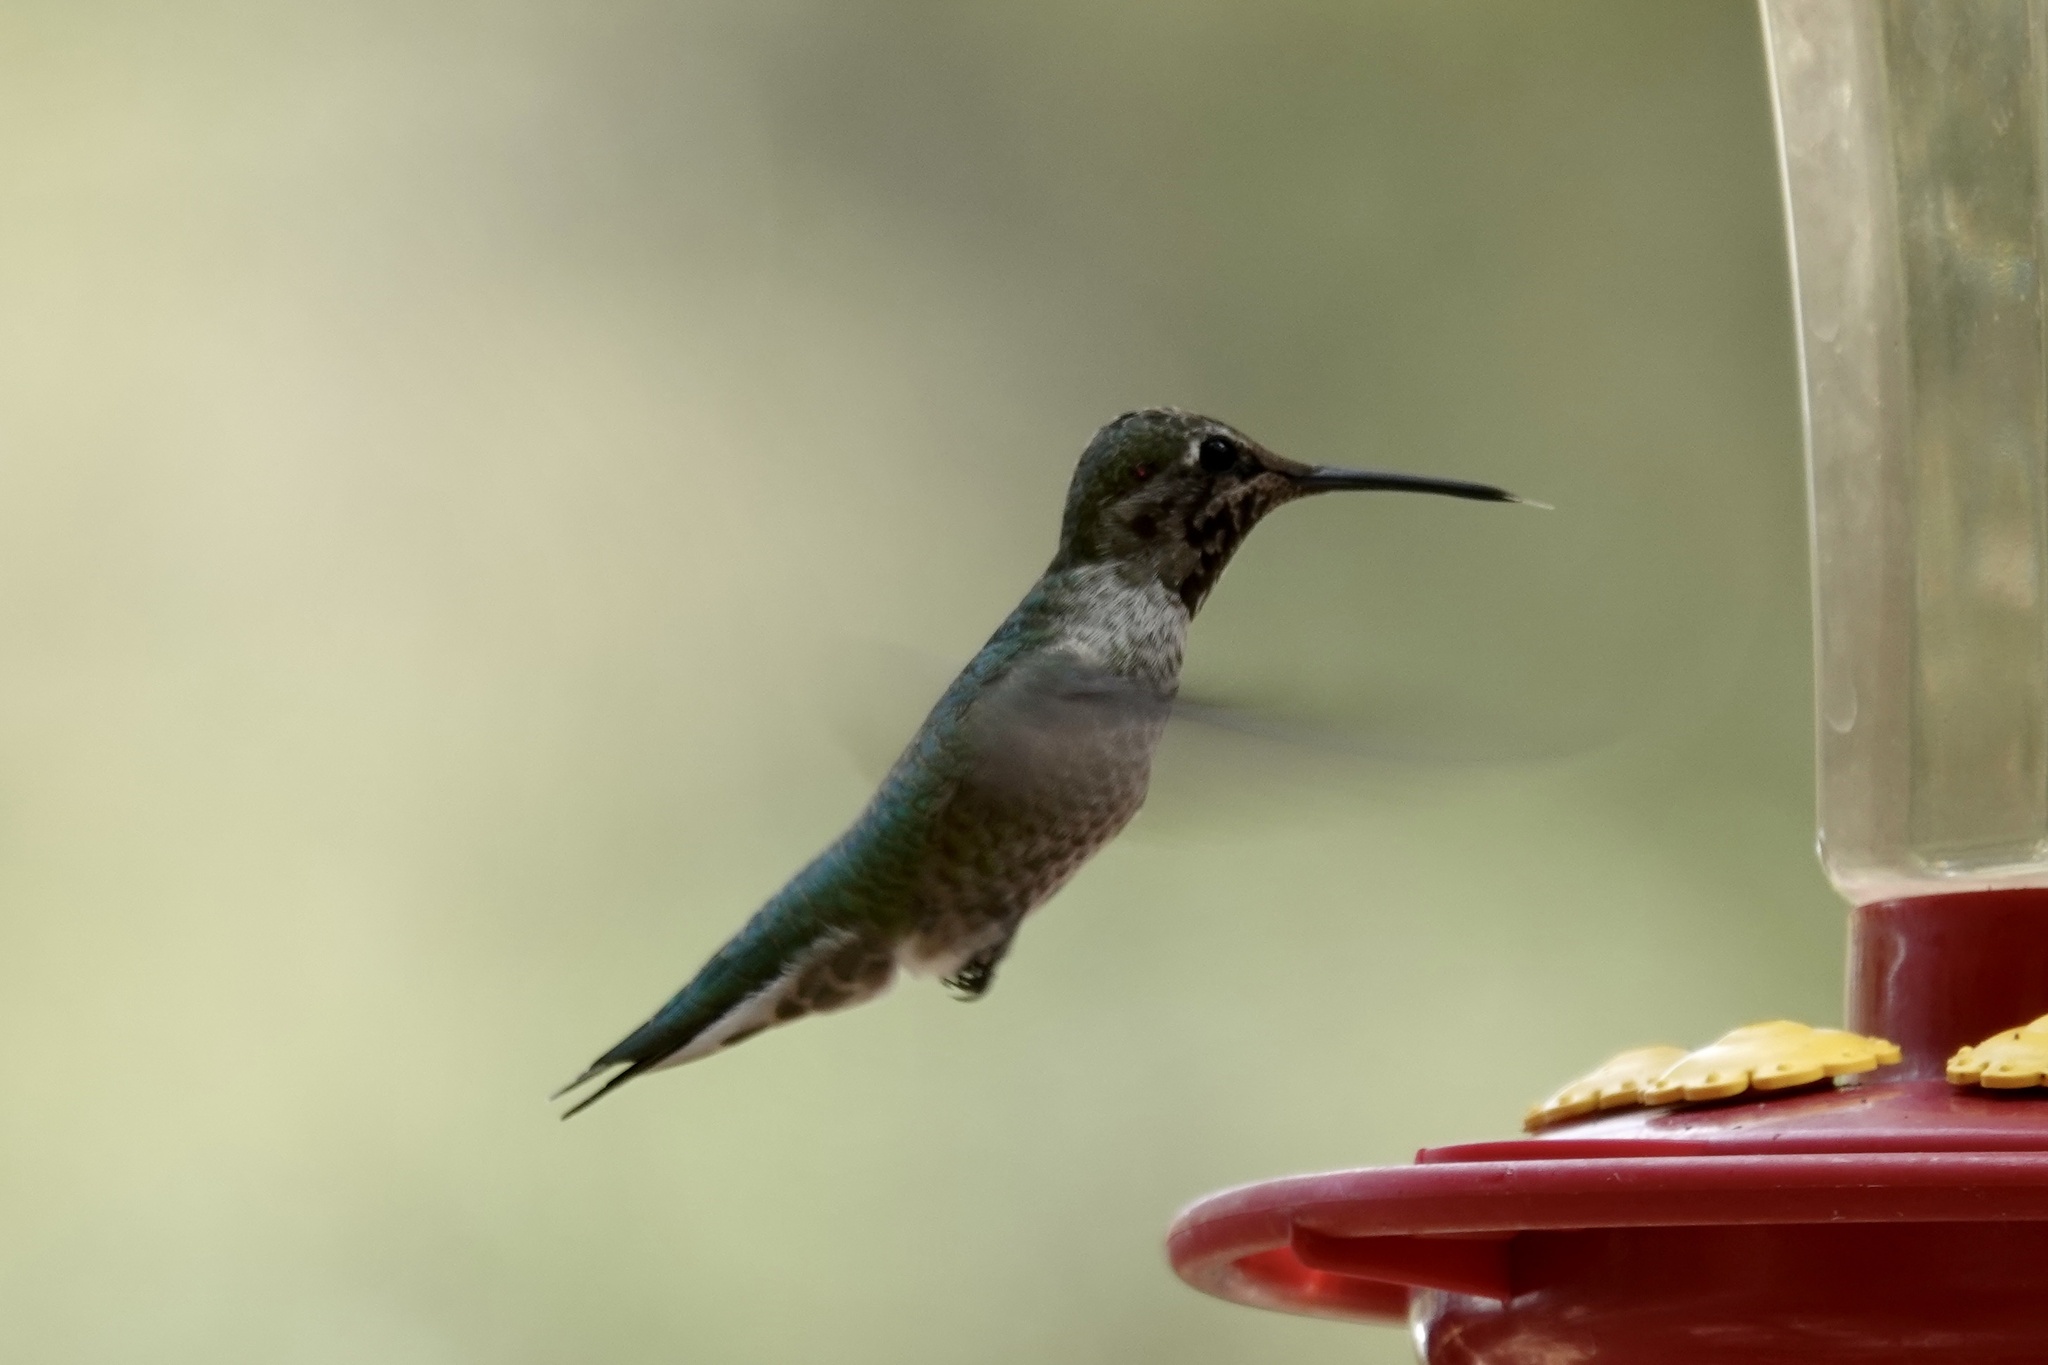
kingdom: Animalia
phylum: Chordata
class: Aves
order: Apodiformes
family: Trochilidae
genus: Calypte
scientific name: Calypte anna
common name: Anna's hummingbird
